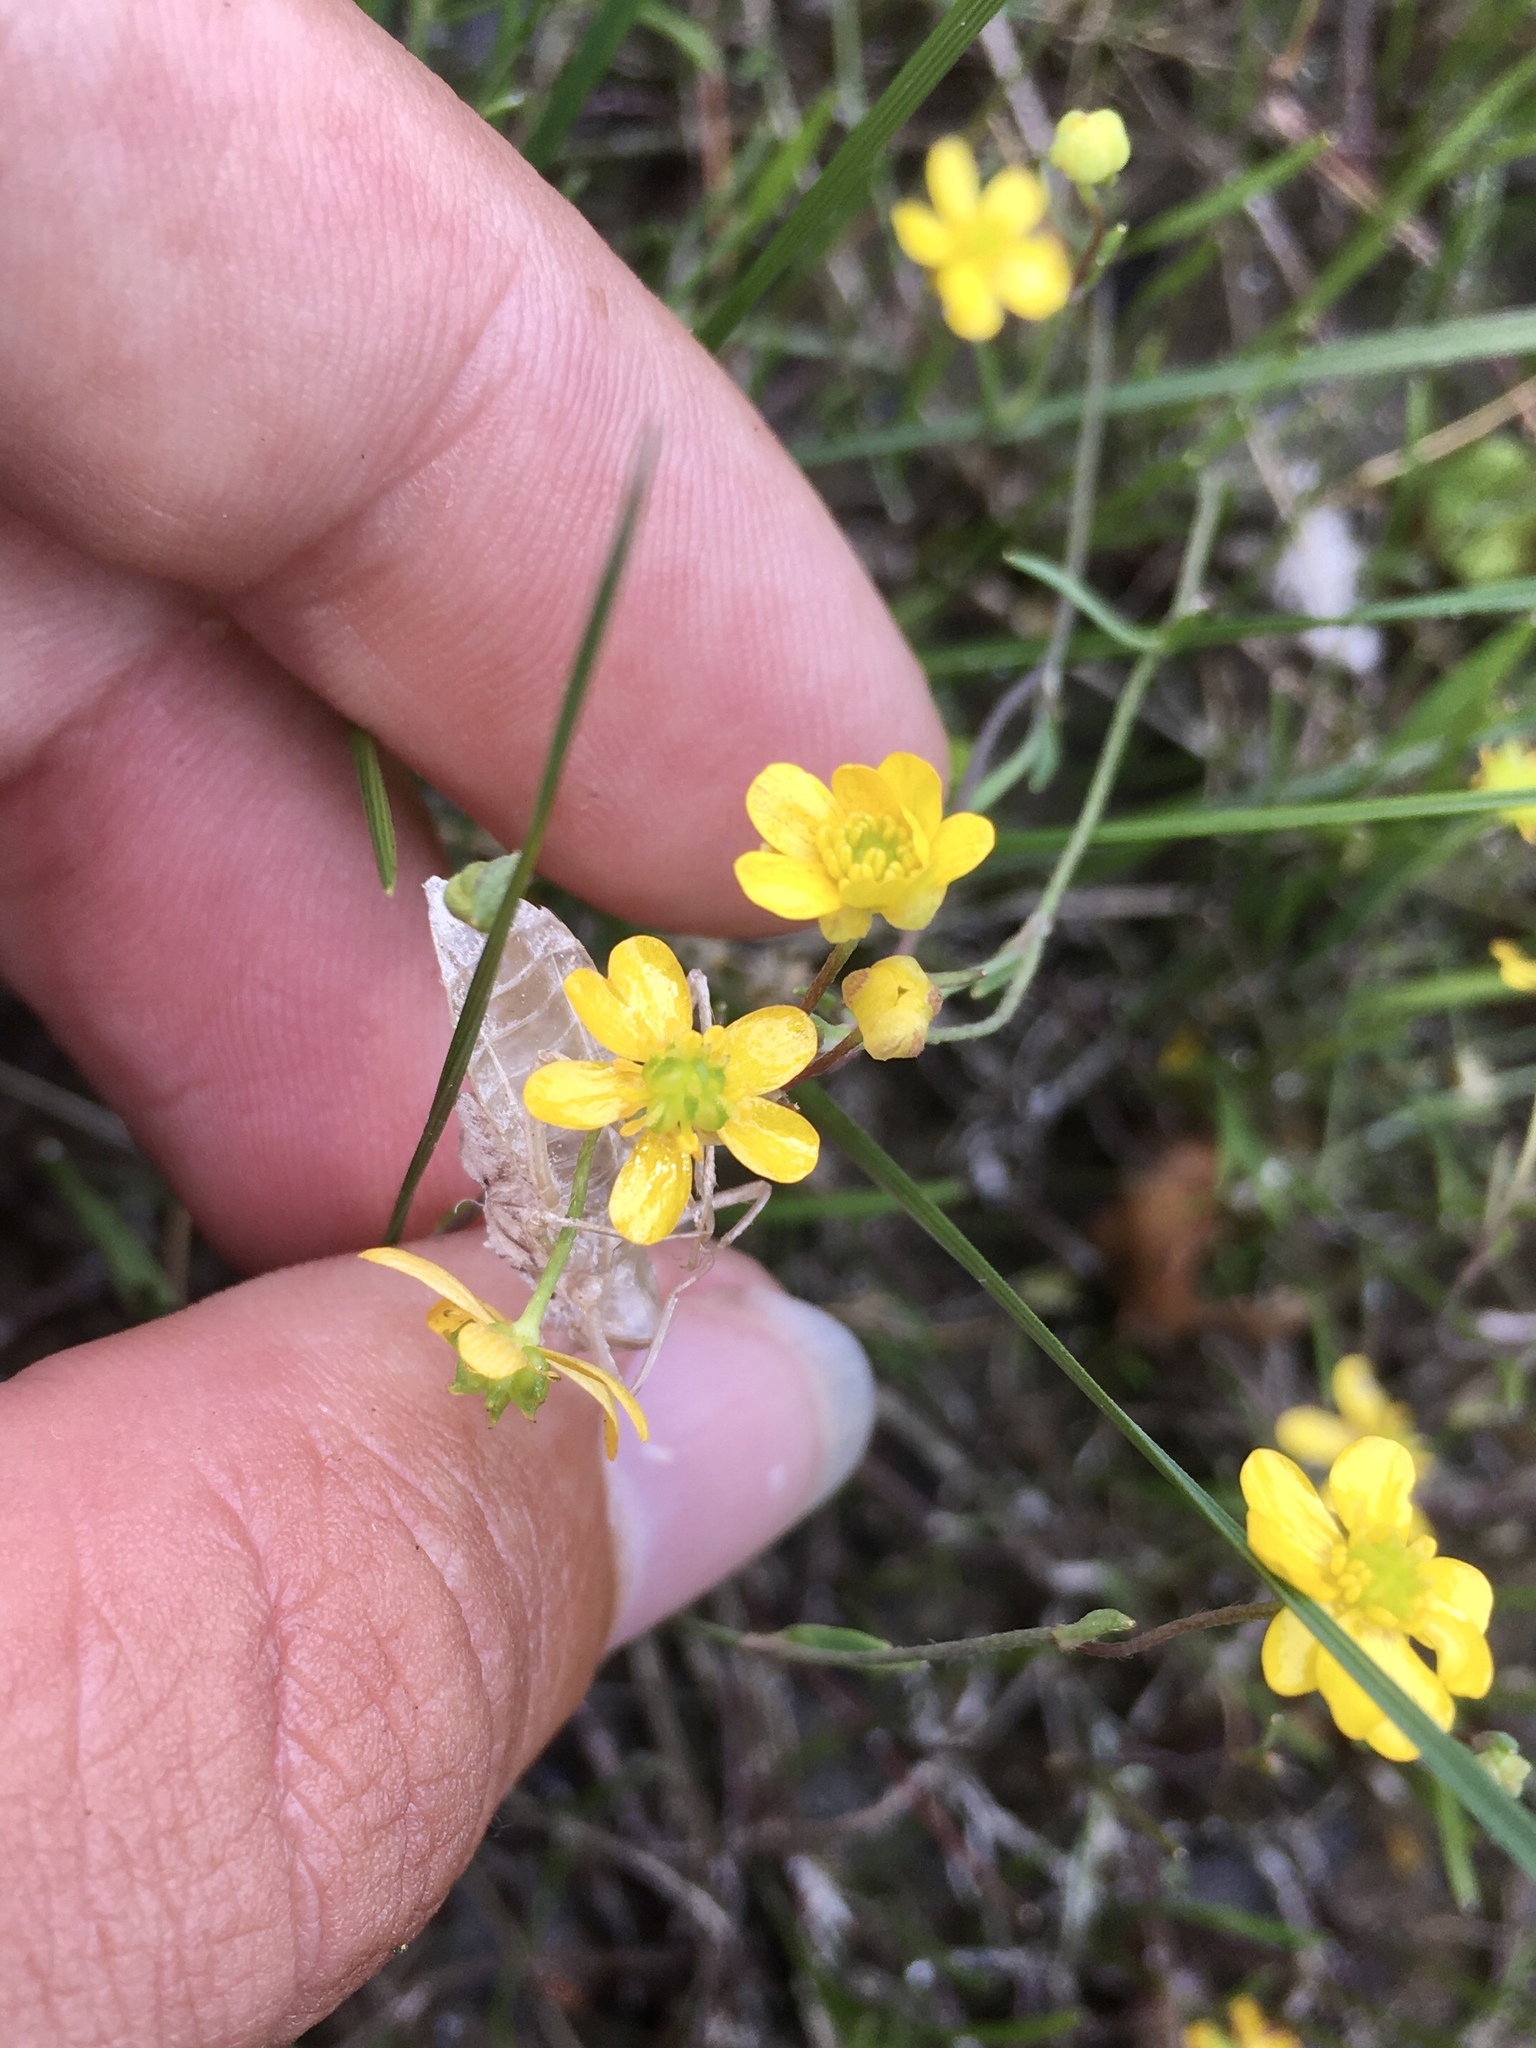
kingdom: Plantae
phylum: Tracheophyta
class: Magnoliopsida
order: Ranunculales
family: Ranunculaceae
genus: Ranunculus
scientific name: Ranunculus flammula
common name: Lesser spearwort
